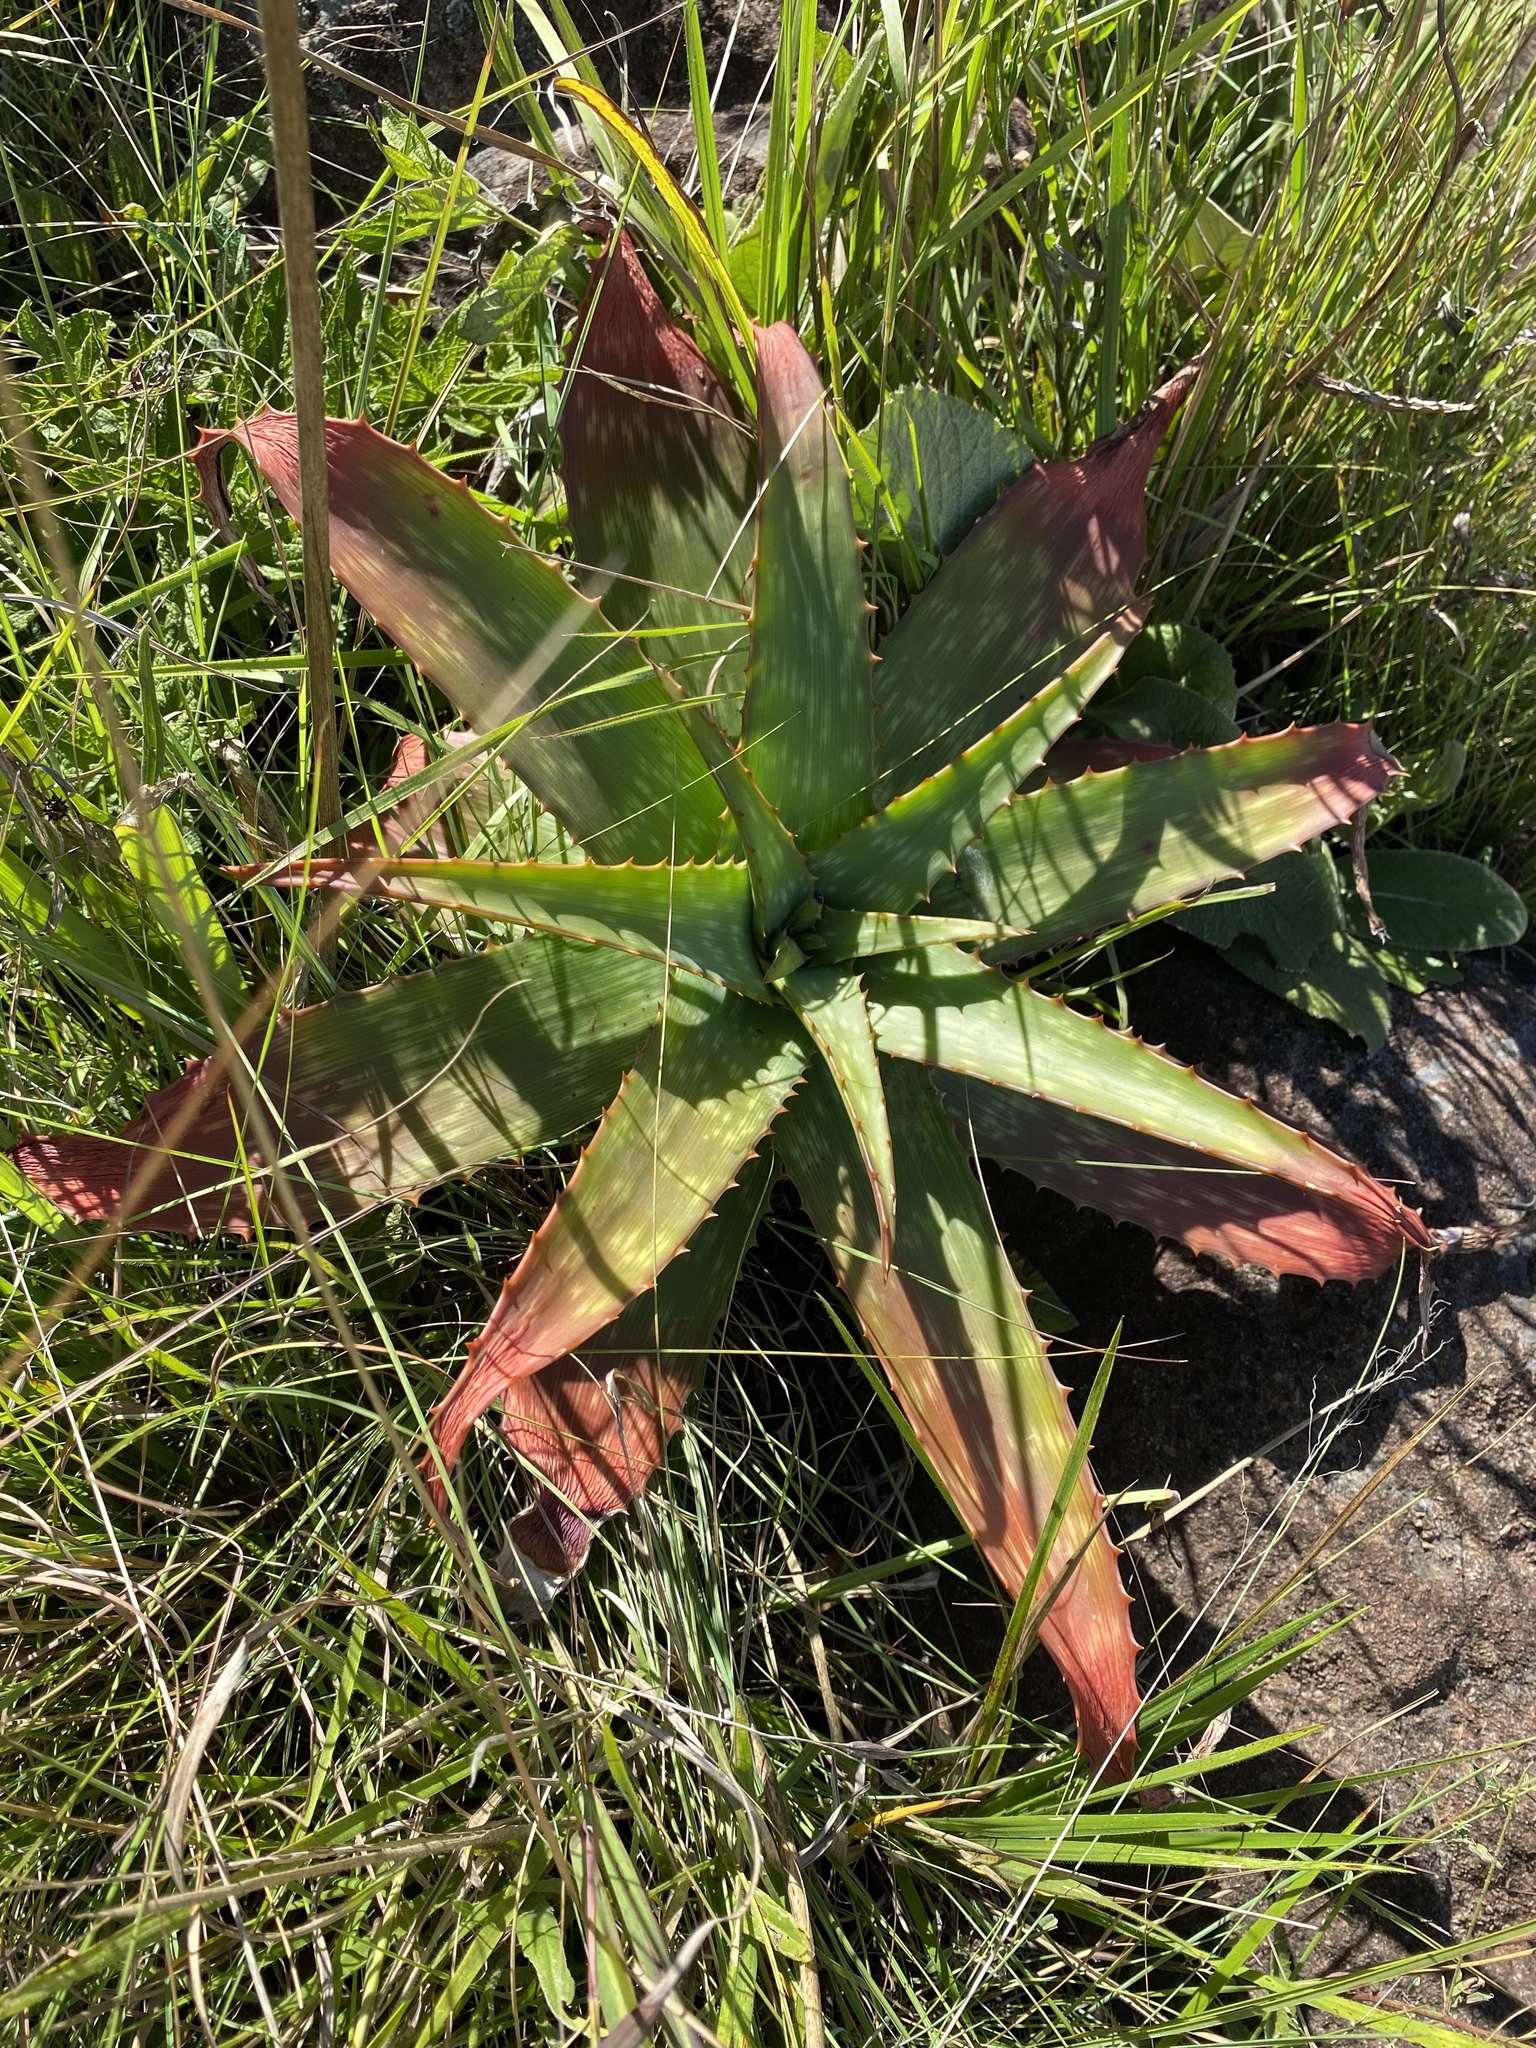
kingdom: Plantae
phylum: Tracheophyta
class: Liliopsida
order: Asparagales
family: Asphodelaceae
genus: Aloe
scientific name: Aloe maculata
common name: Broadleaf aloe
